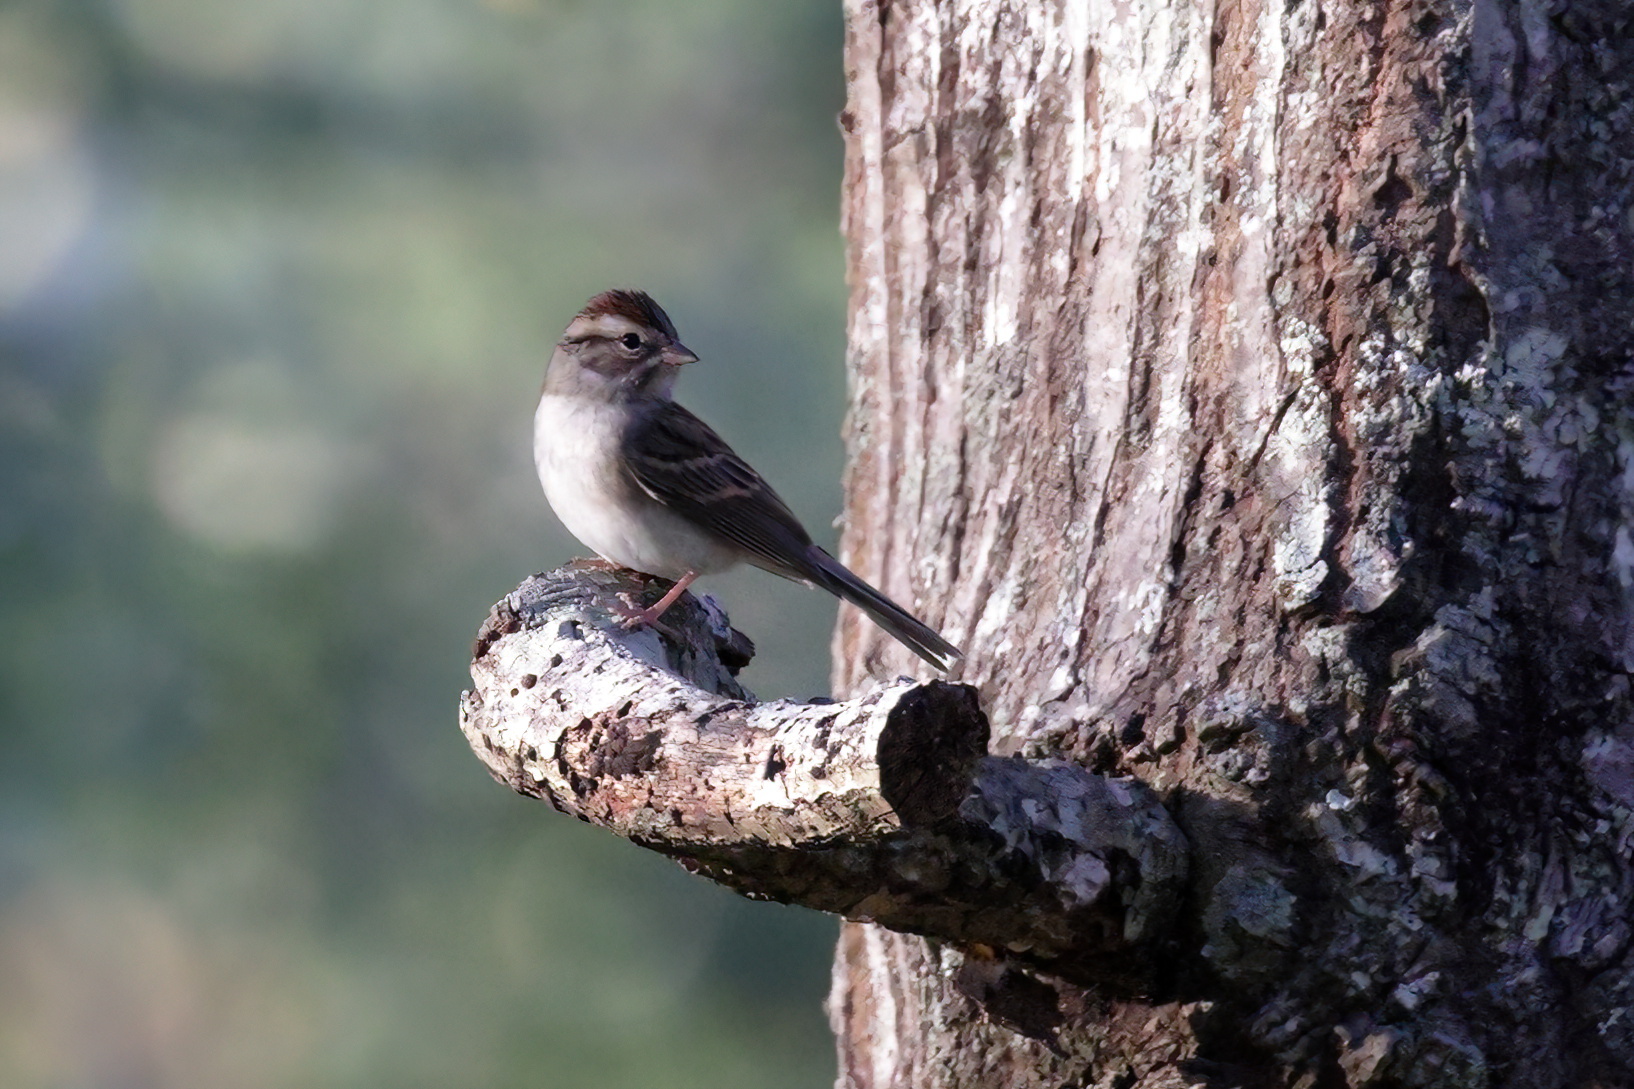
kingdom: Animalia
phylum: Chordata
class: Aves
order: Passeriformes
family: Passerellidae
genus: Spizella
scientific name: Spizella passerina
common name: Chipping sparrow
